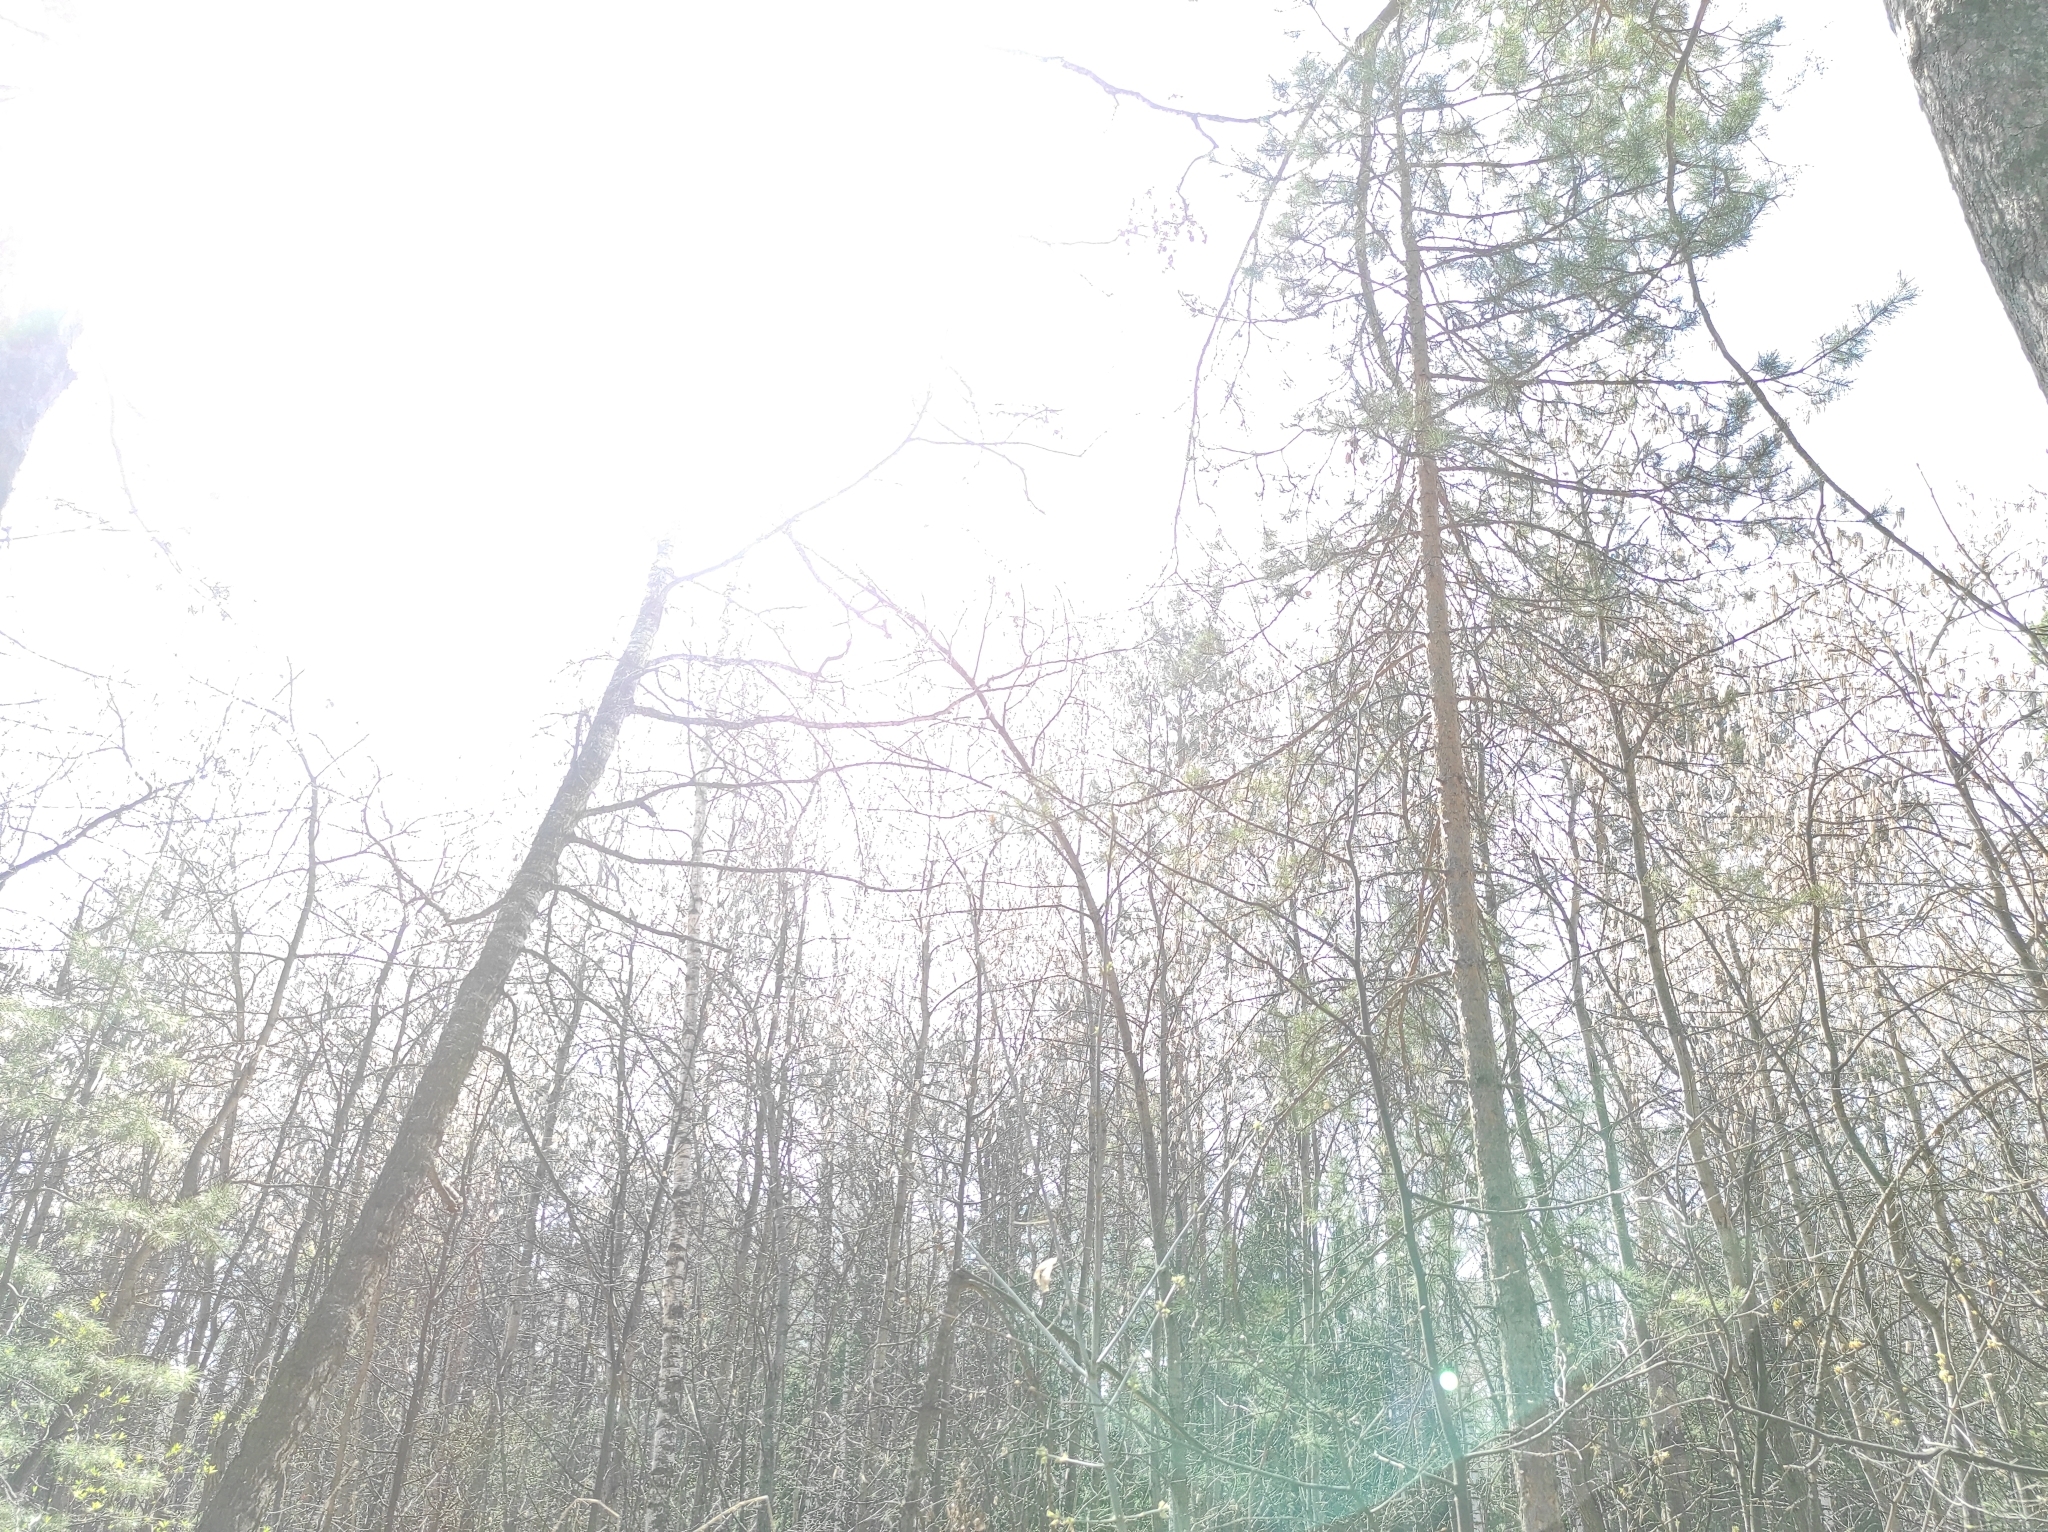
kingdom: Plantae
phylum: Tracheophyta
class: Pinopsida
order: Pinales
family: Pinaceae
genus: Pinus
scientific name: Pinus sylvestris
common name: Scots pine
